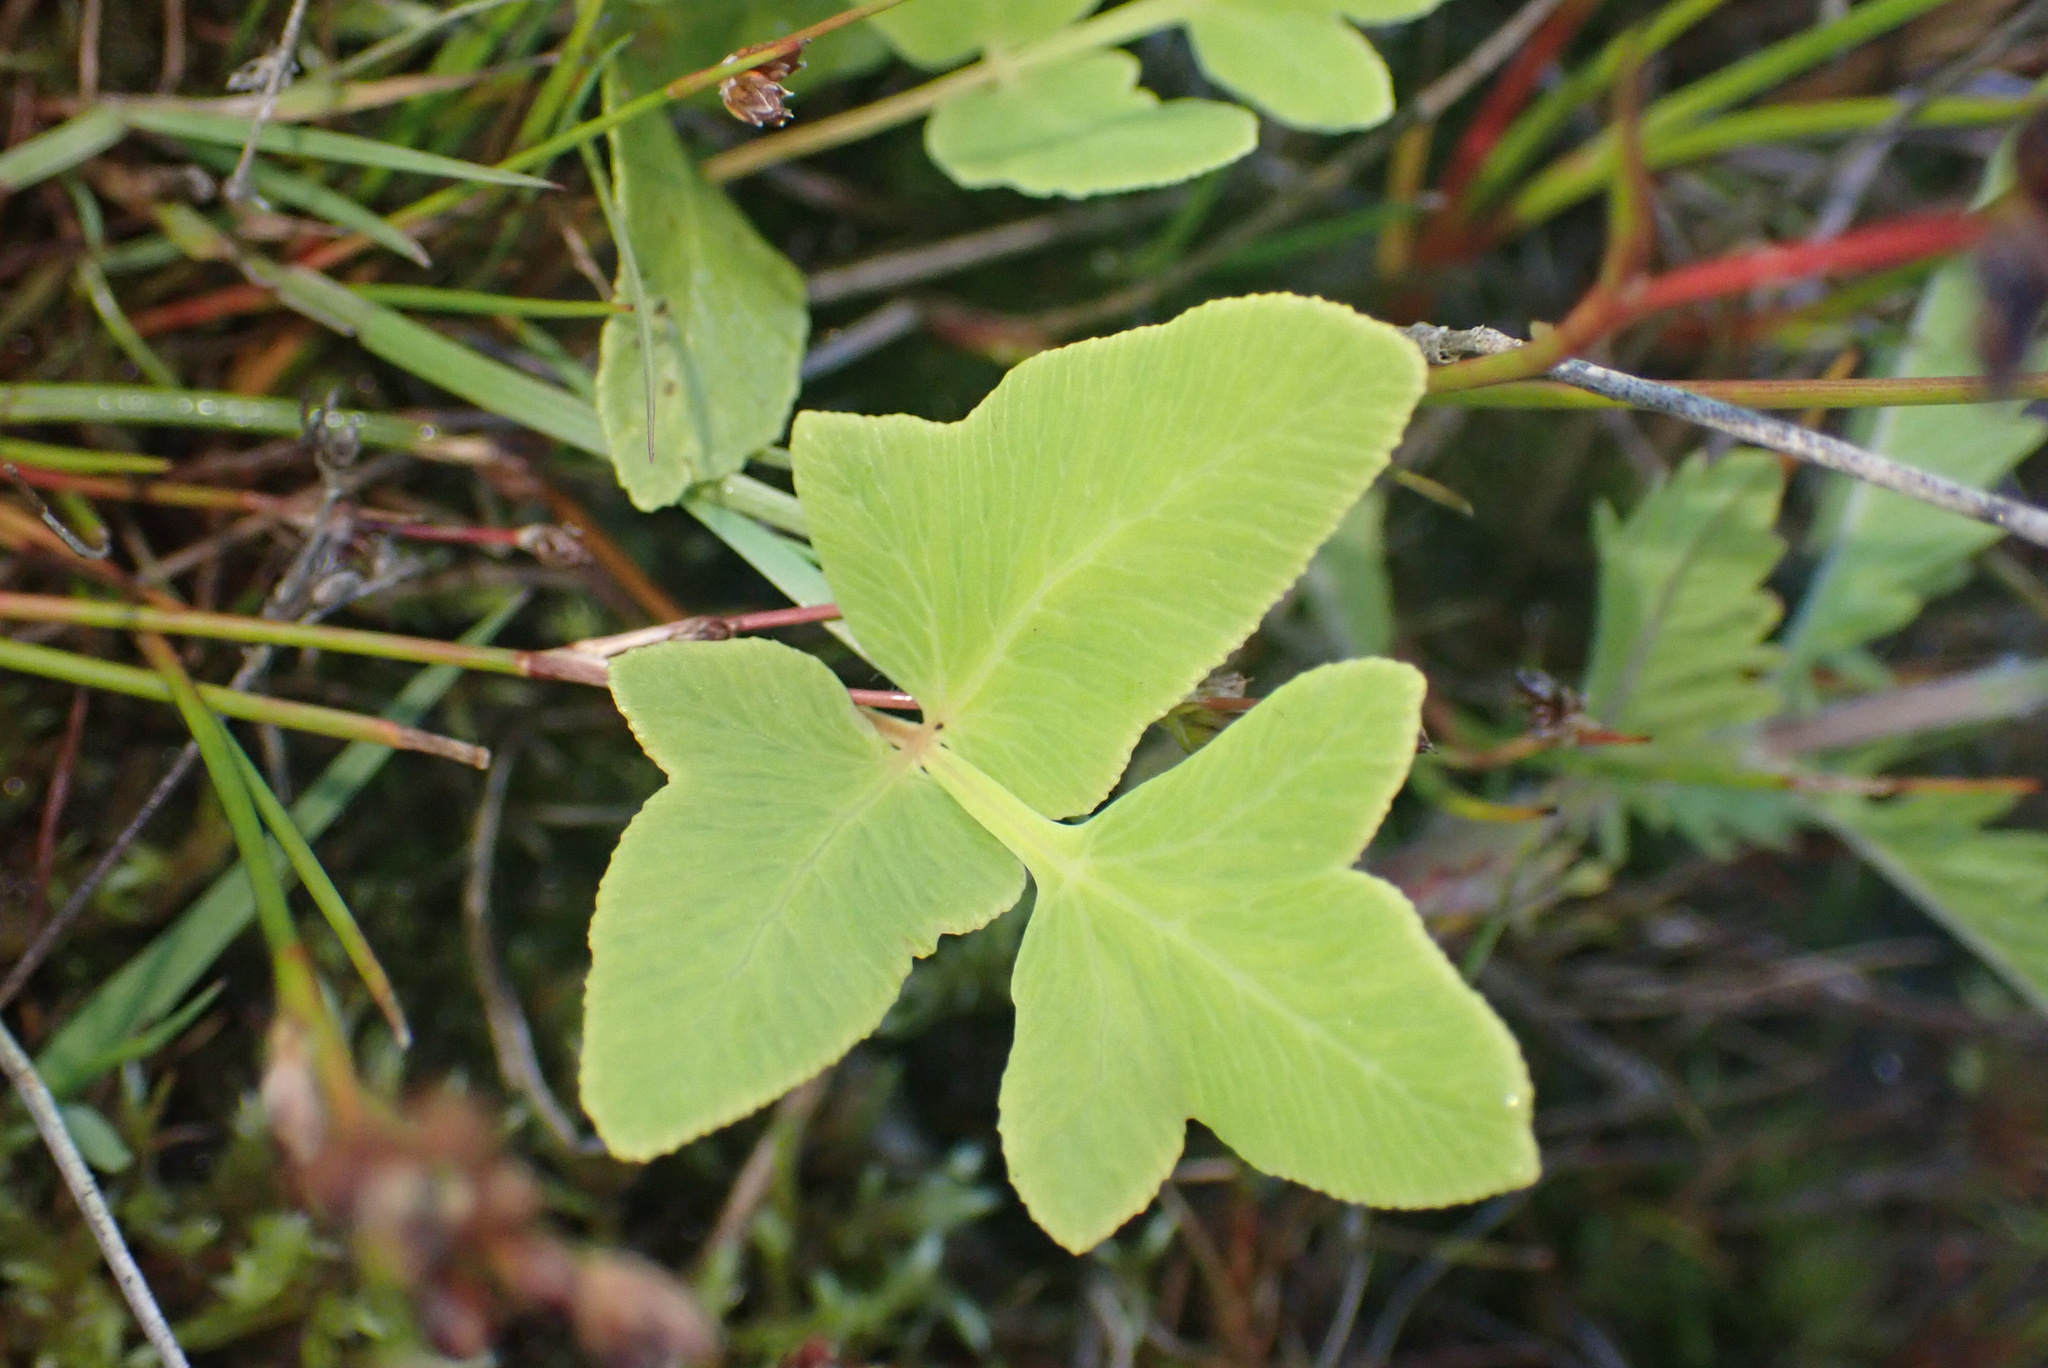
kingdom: Plantae
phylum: Tracheophyta
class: Polypodiopsida
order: Osmundales
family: Osmundaceae
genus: Osmunda
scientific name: Osmunda regalis
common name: Royal fern
